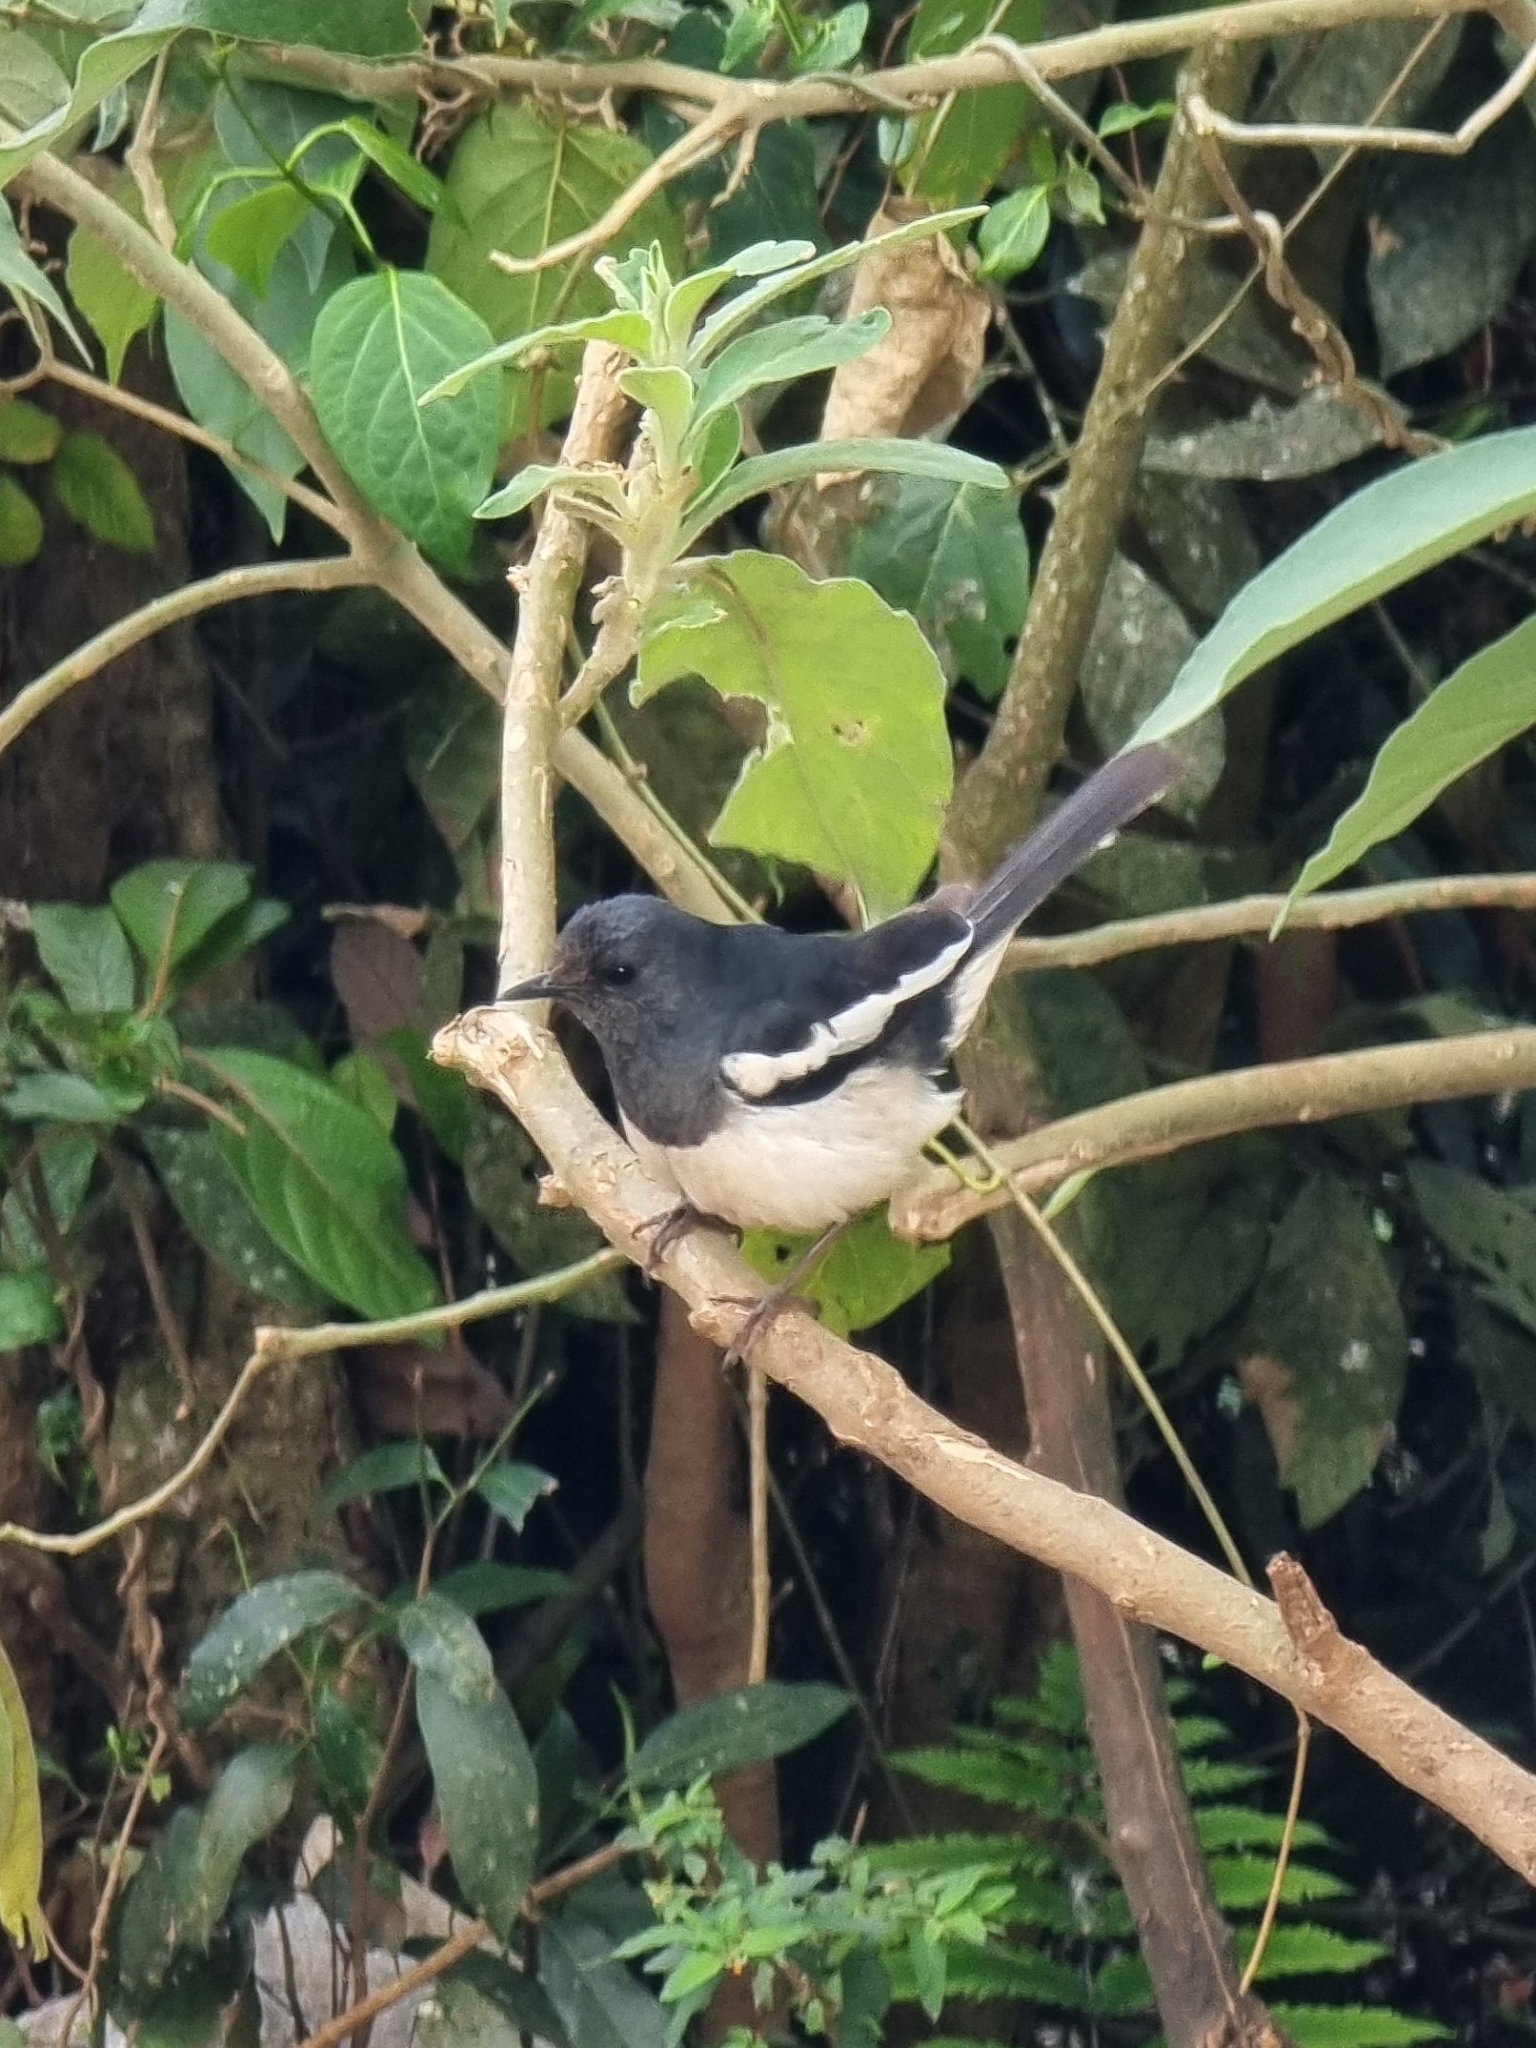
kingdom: Animalia
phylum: Chordata
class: Aves
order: Passeriformes
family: Muscicapidae
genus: Copsychus
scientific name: Copsychus saularis
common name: Oriental magpie-robin
